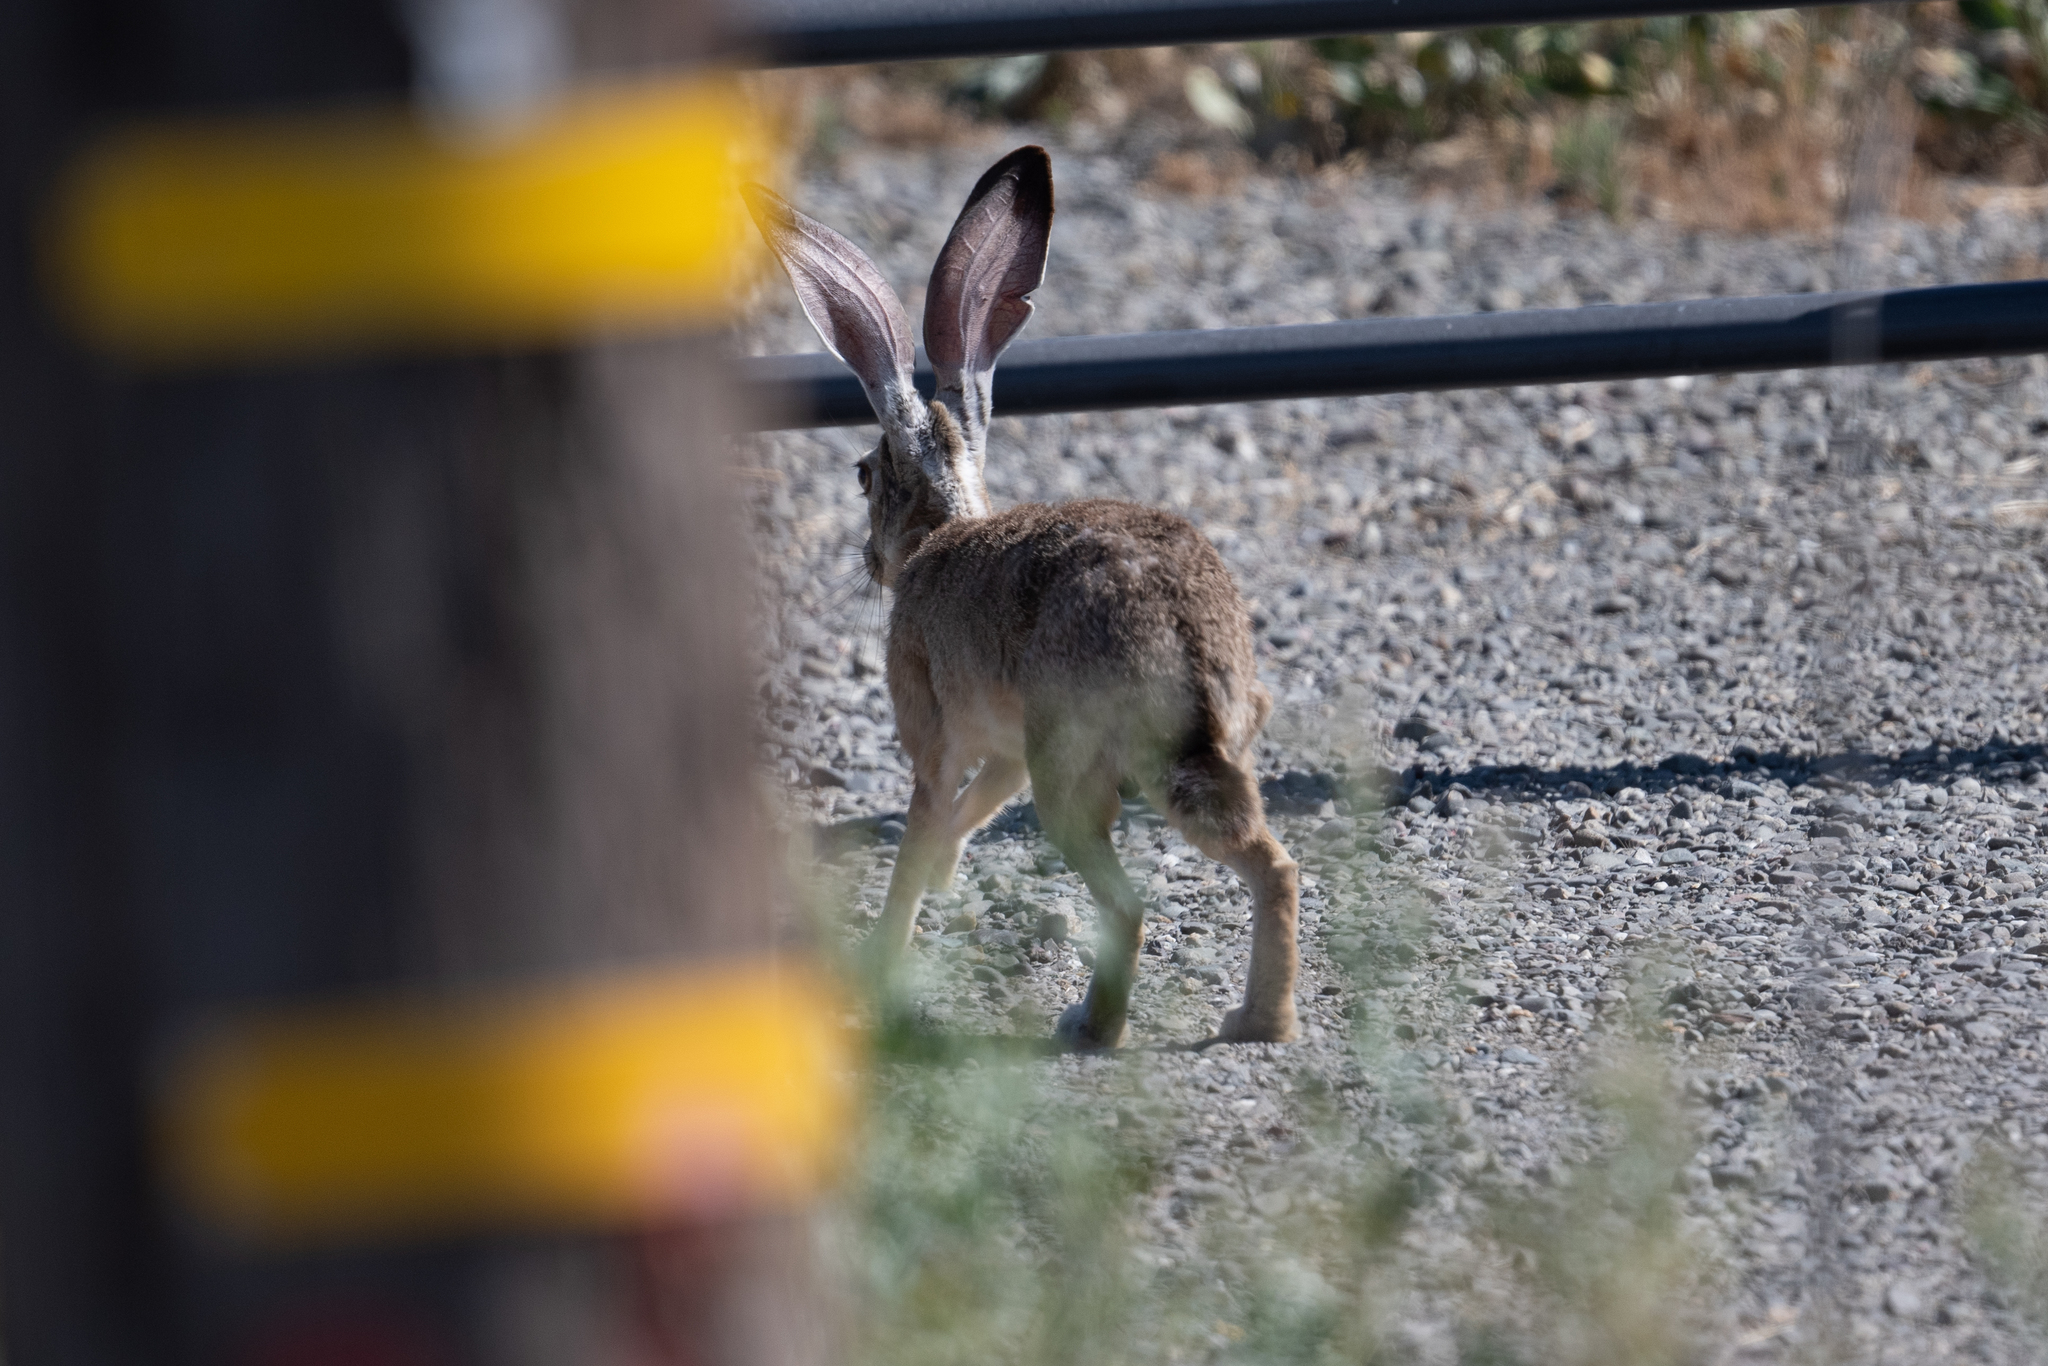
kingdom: Animalia
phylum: Chordata
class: Mammalia
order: Lagomorpha
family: Leporidae
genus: Lepus
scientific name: Lepus californicus
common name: Black-tailed jackrabbit
